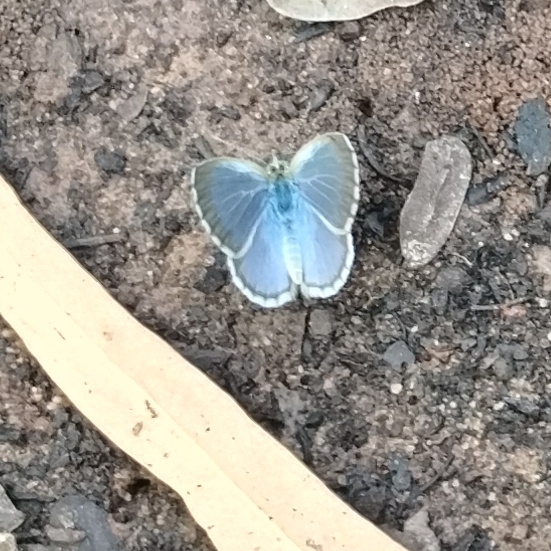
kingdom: Animalia
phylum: Arthropoda
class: Insecta
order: Lepidoptera
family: Lycaenidae
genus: Zizina
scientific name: Zizina labradus
